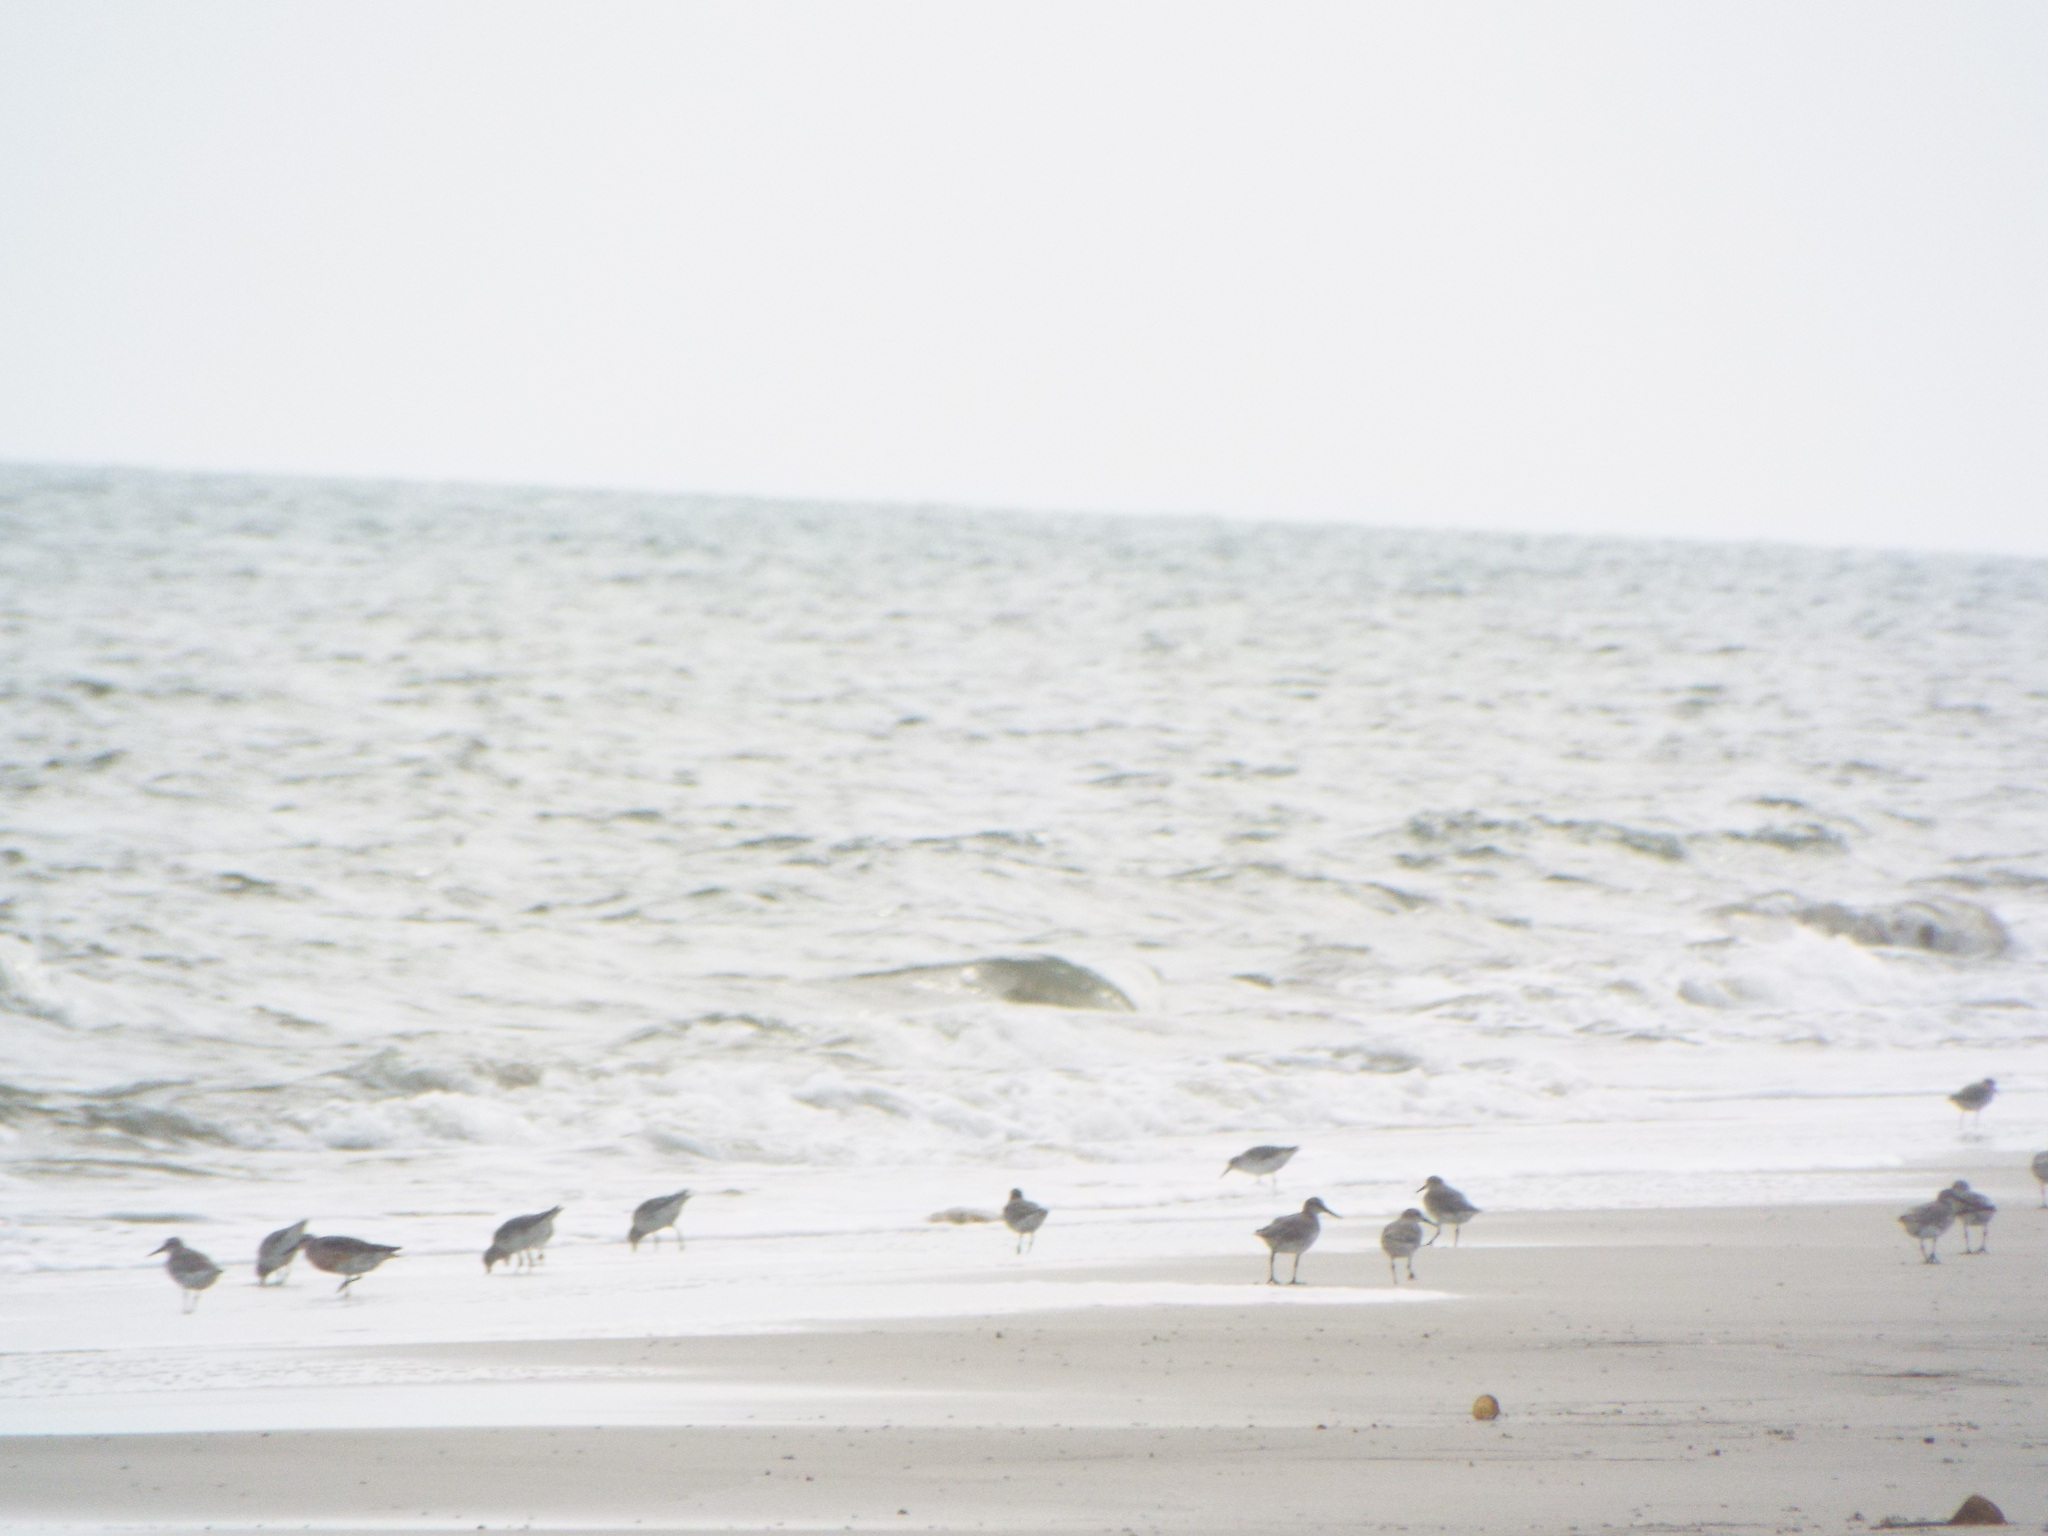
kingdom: Animalia
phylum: Chordata
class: Aves
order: Charadriiformes
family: Scolopacidae
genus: Calidris
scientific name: Calidris canutus
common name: Red knot
